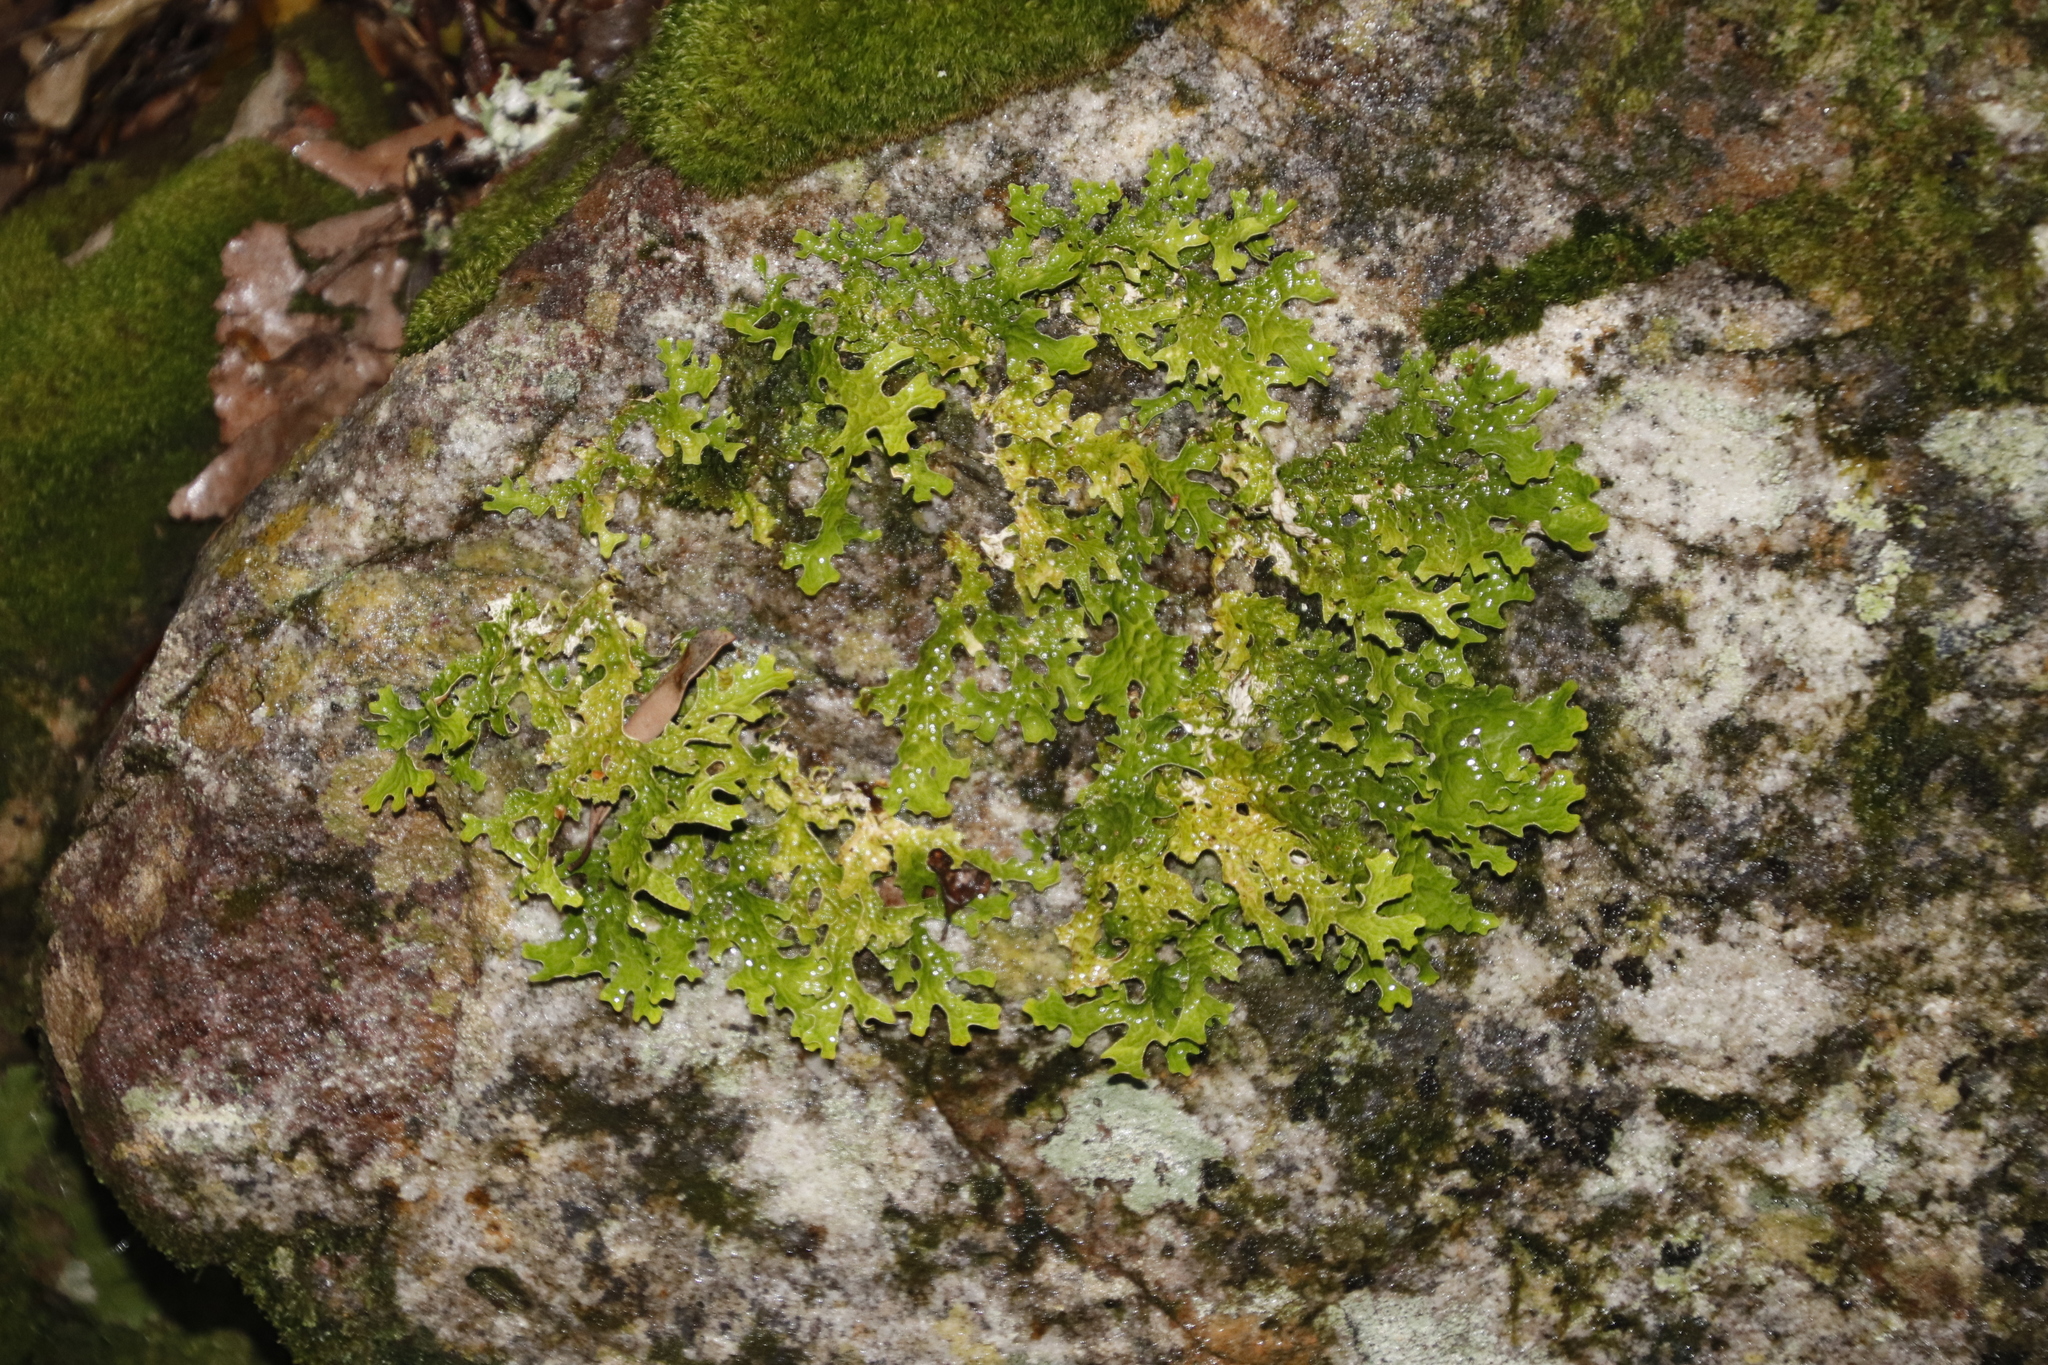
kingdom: Fungi
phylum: Ascomycota
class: Lecanoromycetes
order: Peltigerales
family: Lobariaceae
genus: Lobaria
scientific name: Lobaria pulmonaria
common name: Lungwort
